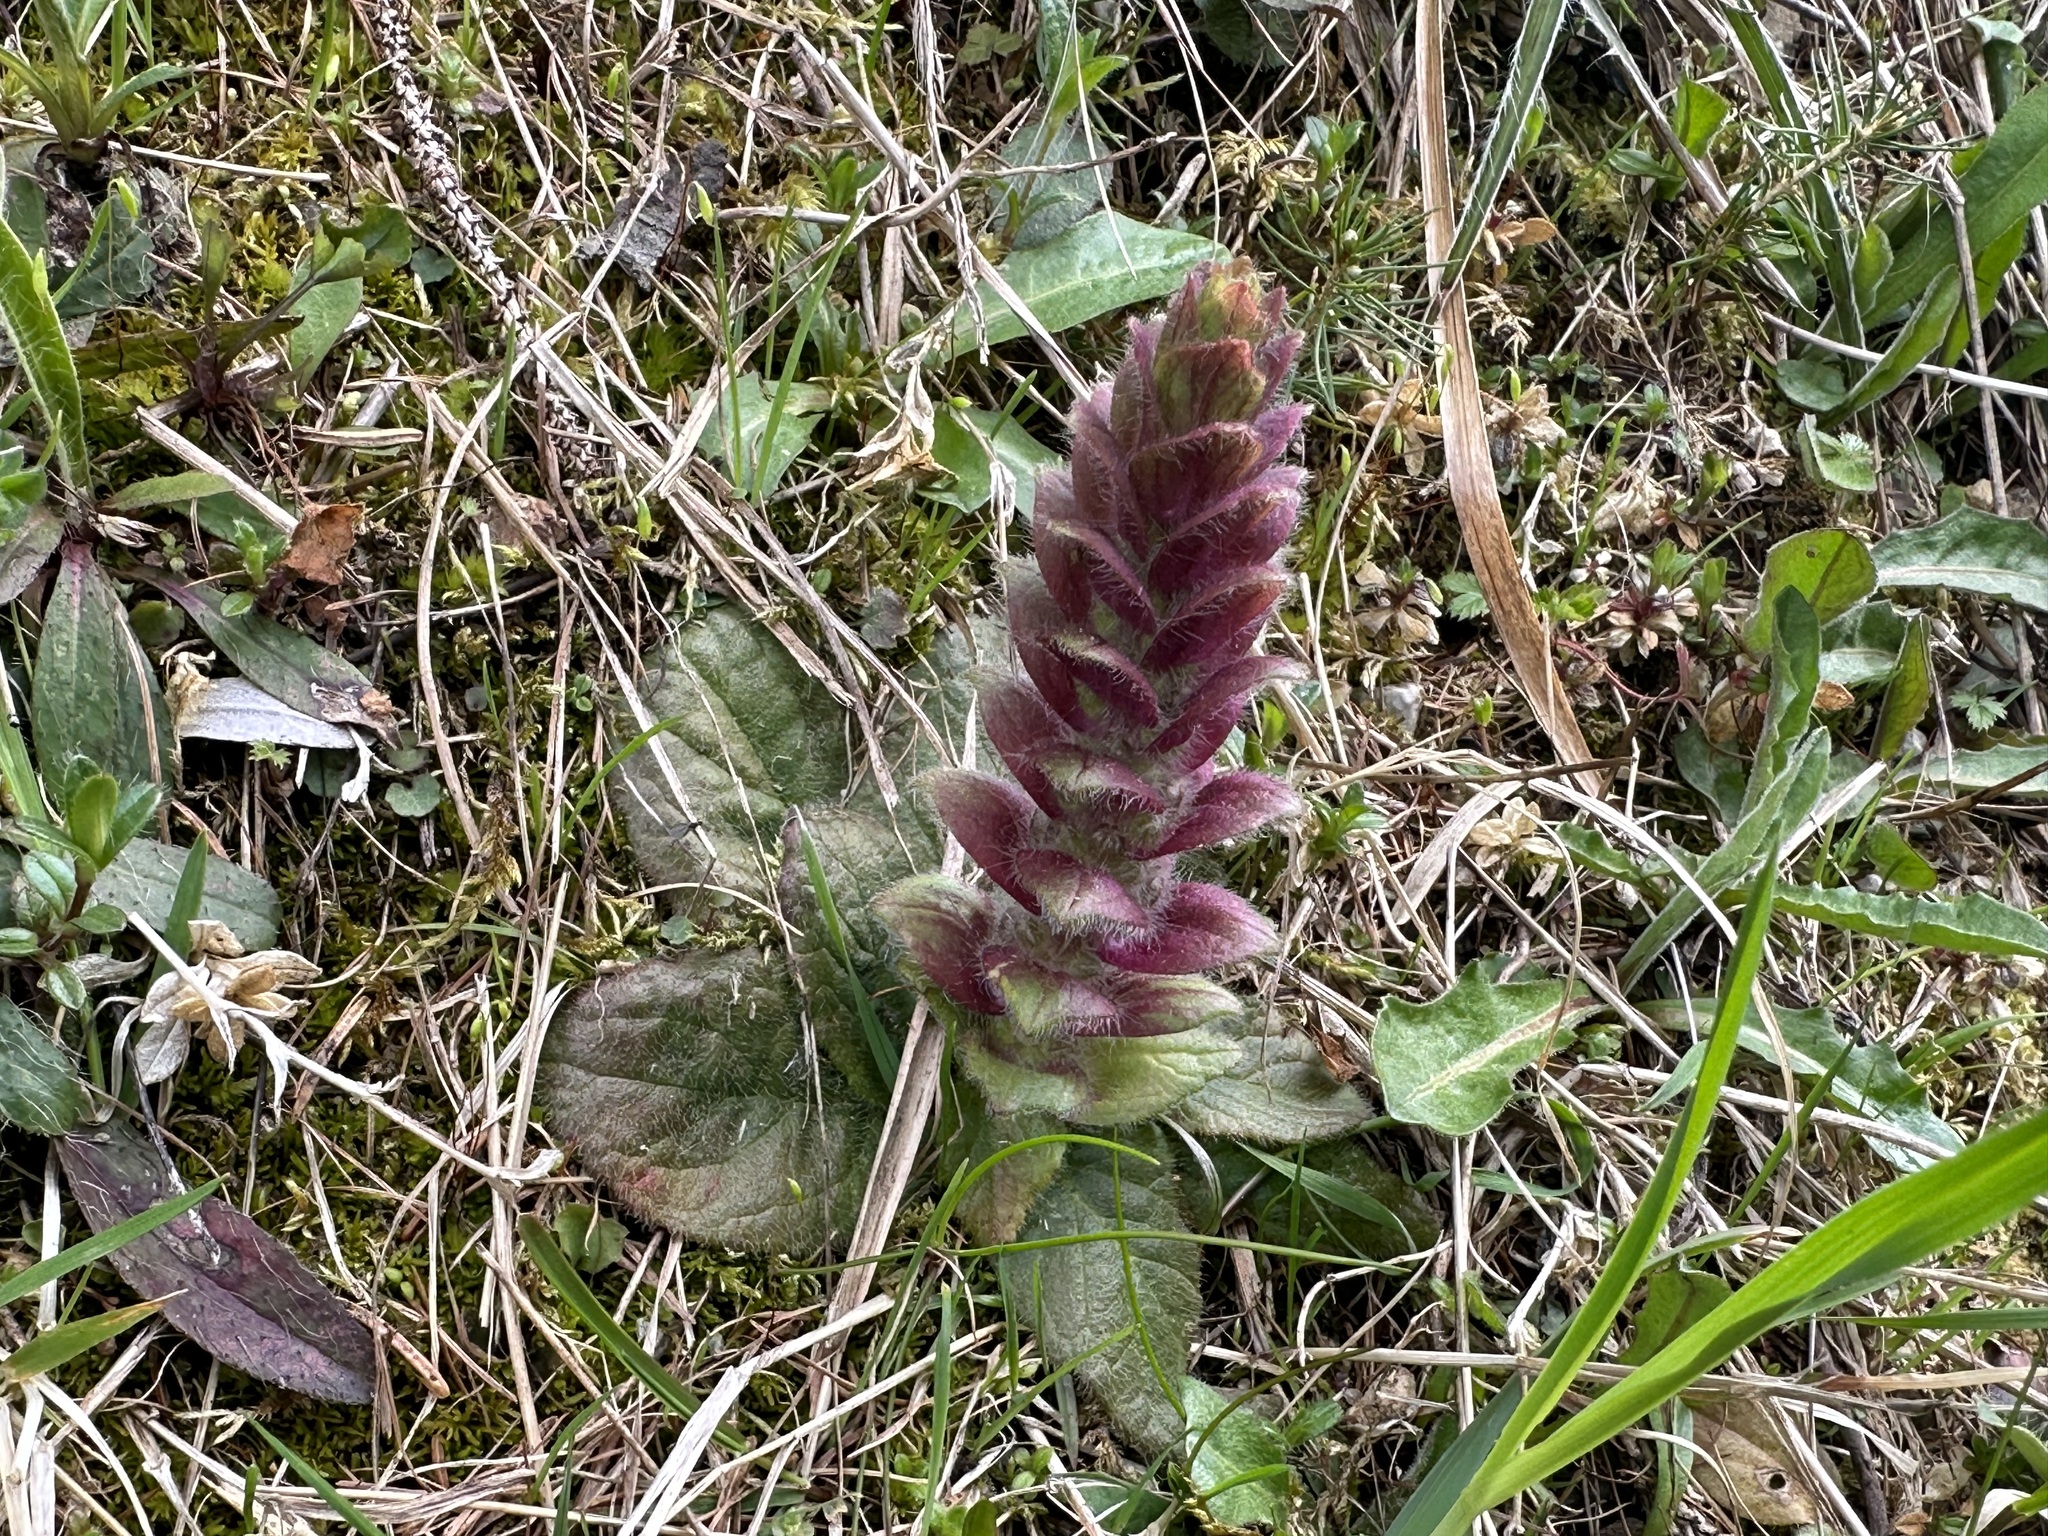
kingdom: Plantae
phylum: Tracheophyta
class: Magnoliopsida
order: Lamiales
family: Lamiaceae
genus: Ajuga
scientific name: Ajuga pyramidalis
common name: Pyramid bugle
